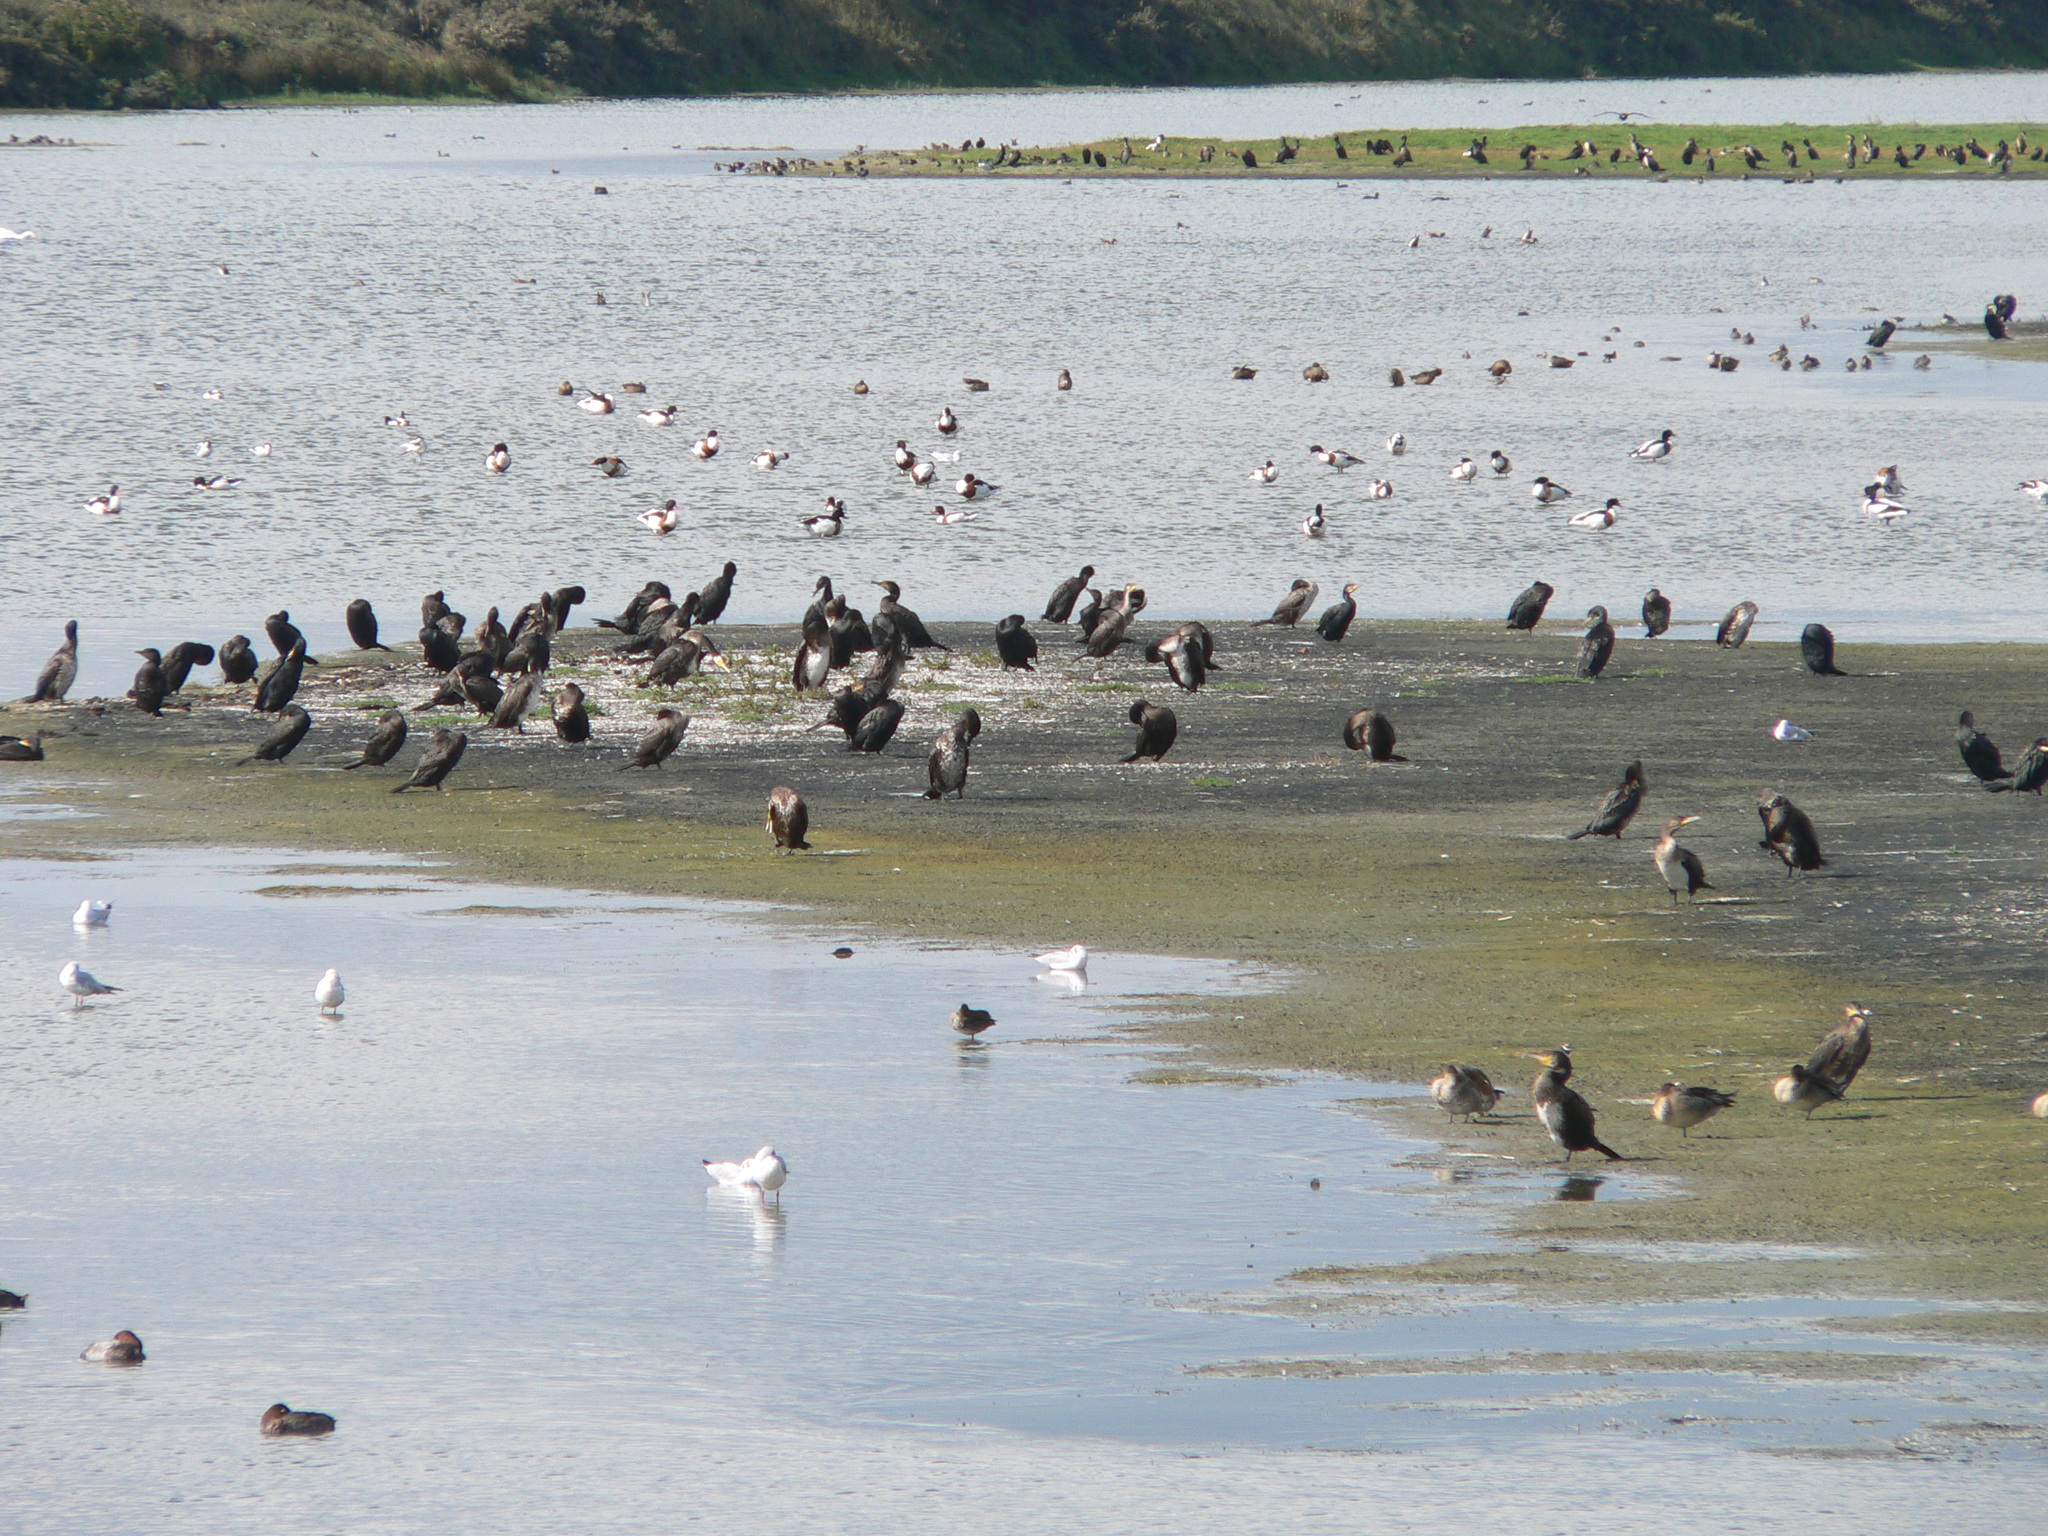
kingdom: Animalia
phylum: Chordata
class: Aves
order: Suliformes
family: Phalacrocoracidae
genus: Phalacrocorax
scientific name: Phalacrocorax carbo
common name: Great cormorant
